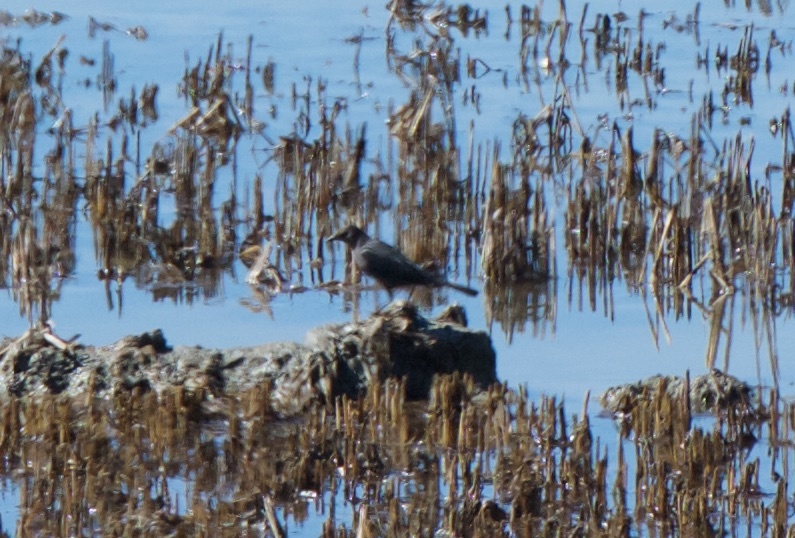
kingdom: Animalia
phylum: Chordata
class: Aves
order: Passeriformes
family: Icteridae
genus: Euphagus
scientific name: Euphagus cyanocephalus
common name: Brewer's blackbird
